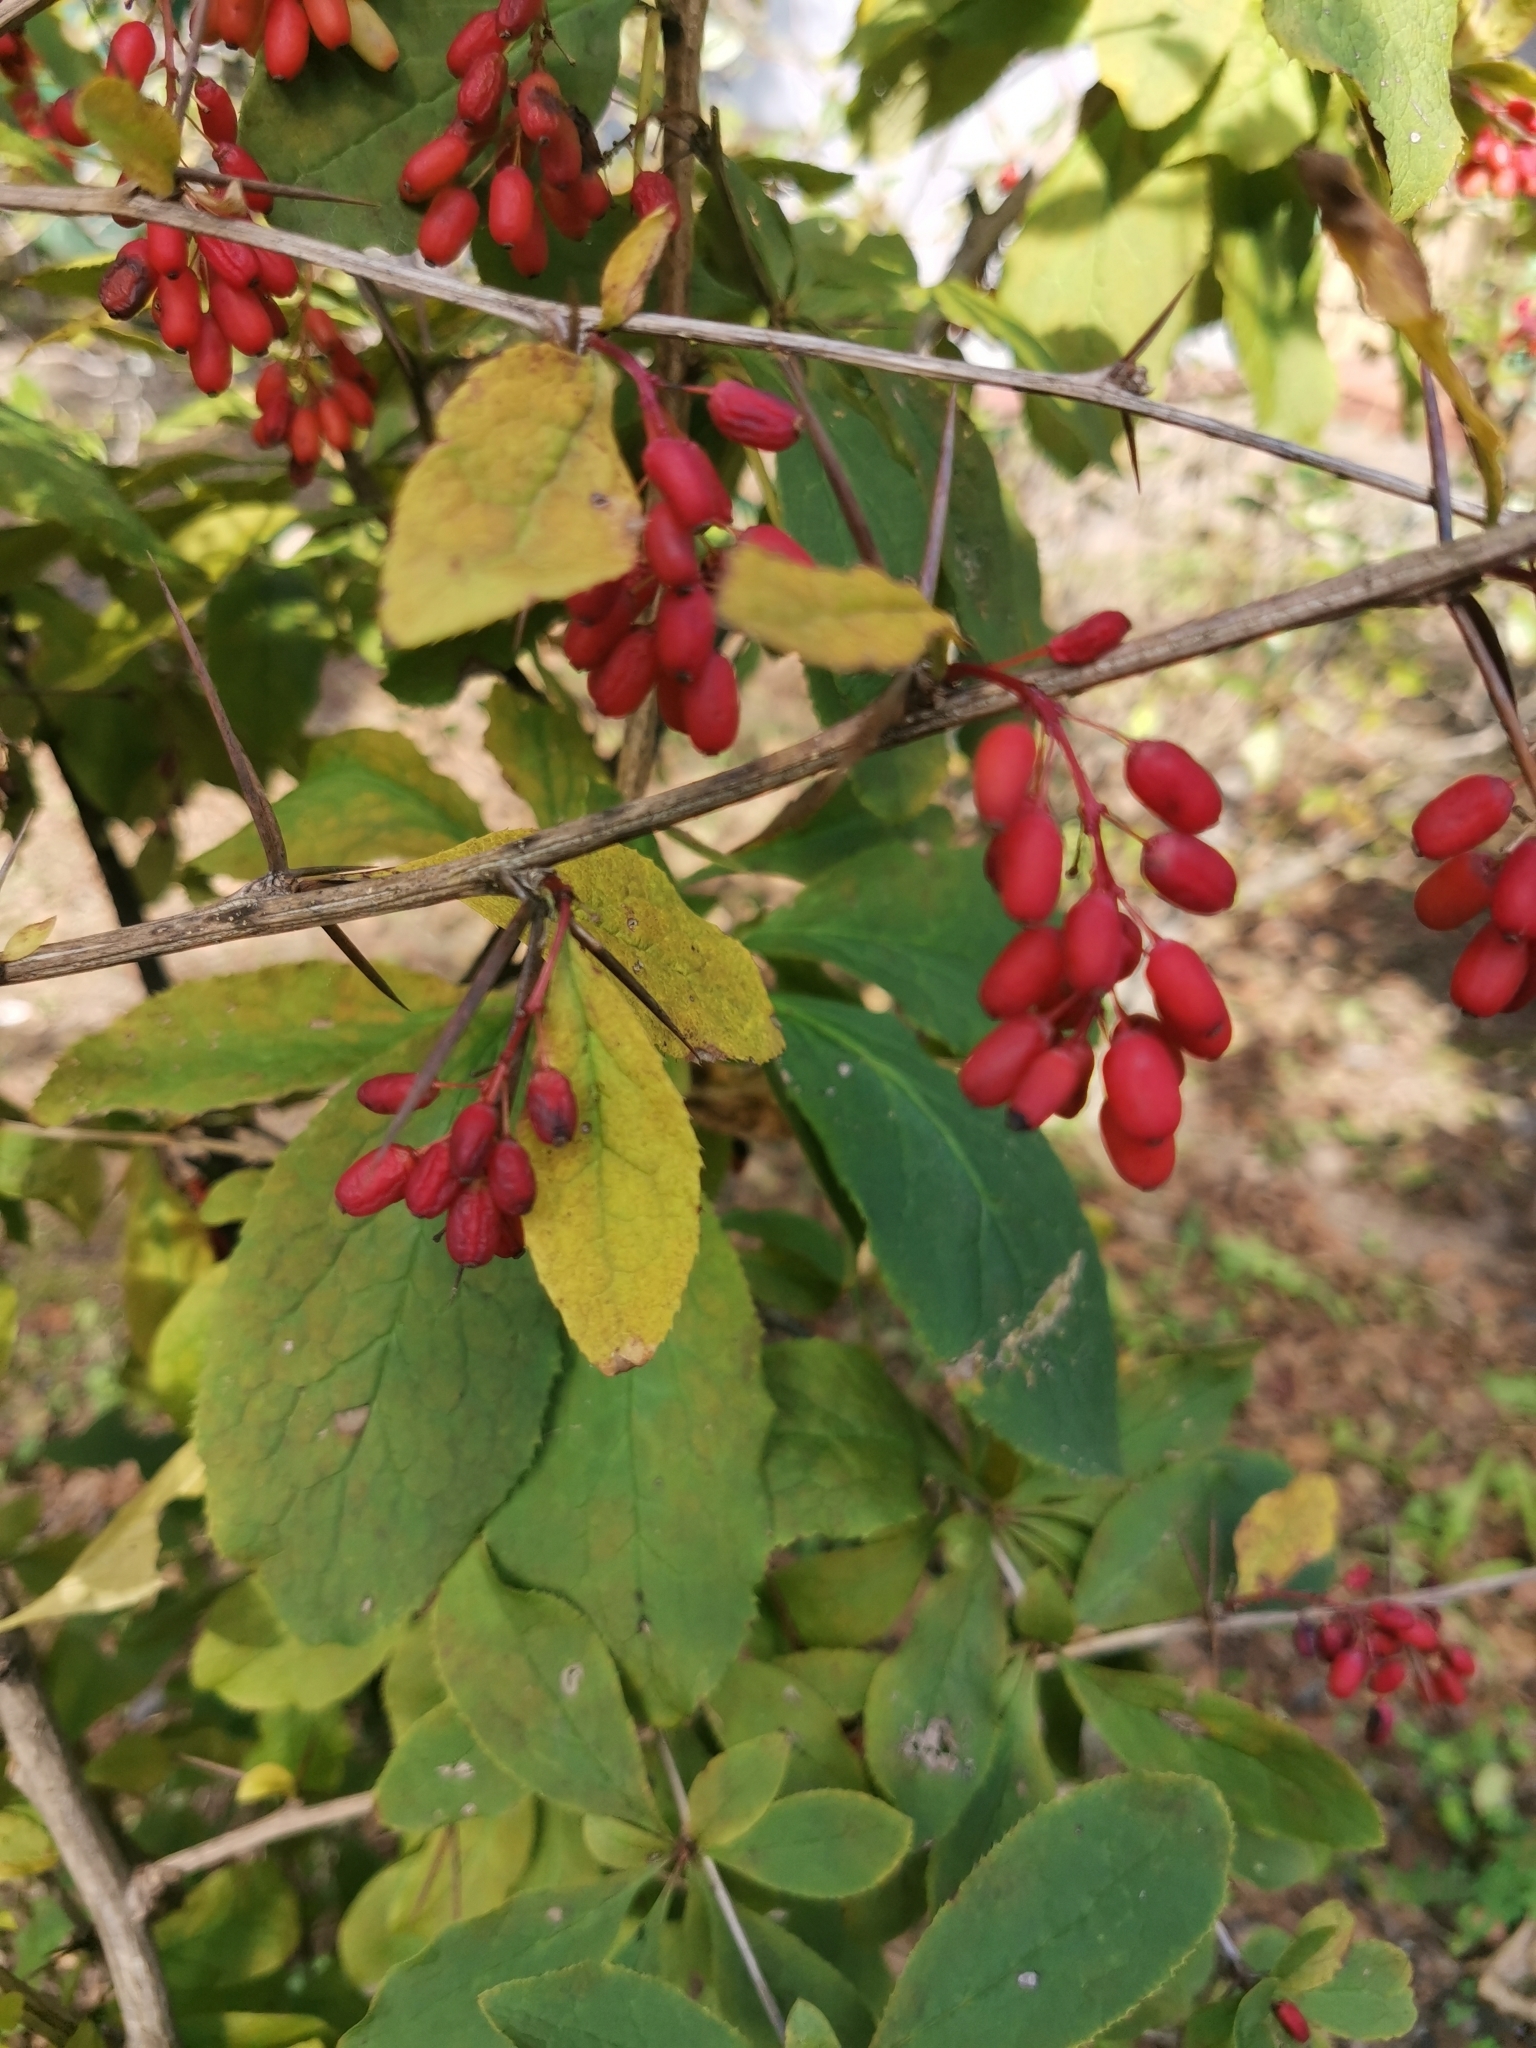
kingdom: Plantae
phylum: Tracheophyta
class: Magnoliopsida
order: Ranunculales
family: Berberidaceae
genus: Berberis
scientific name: Berberis amurensis
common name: Amur barberry
